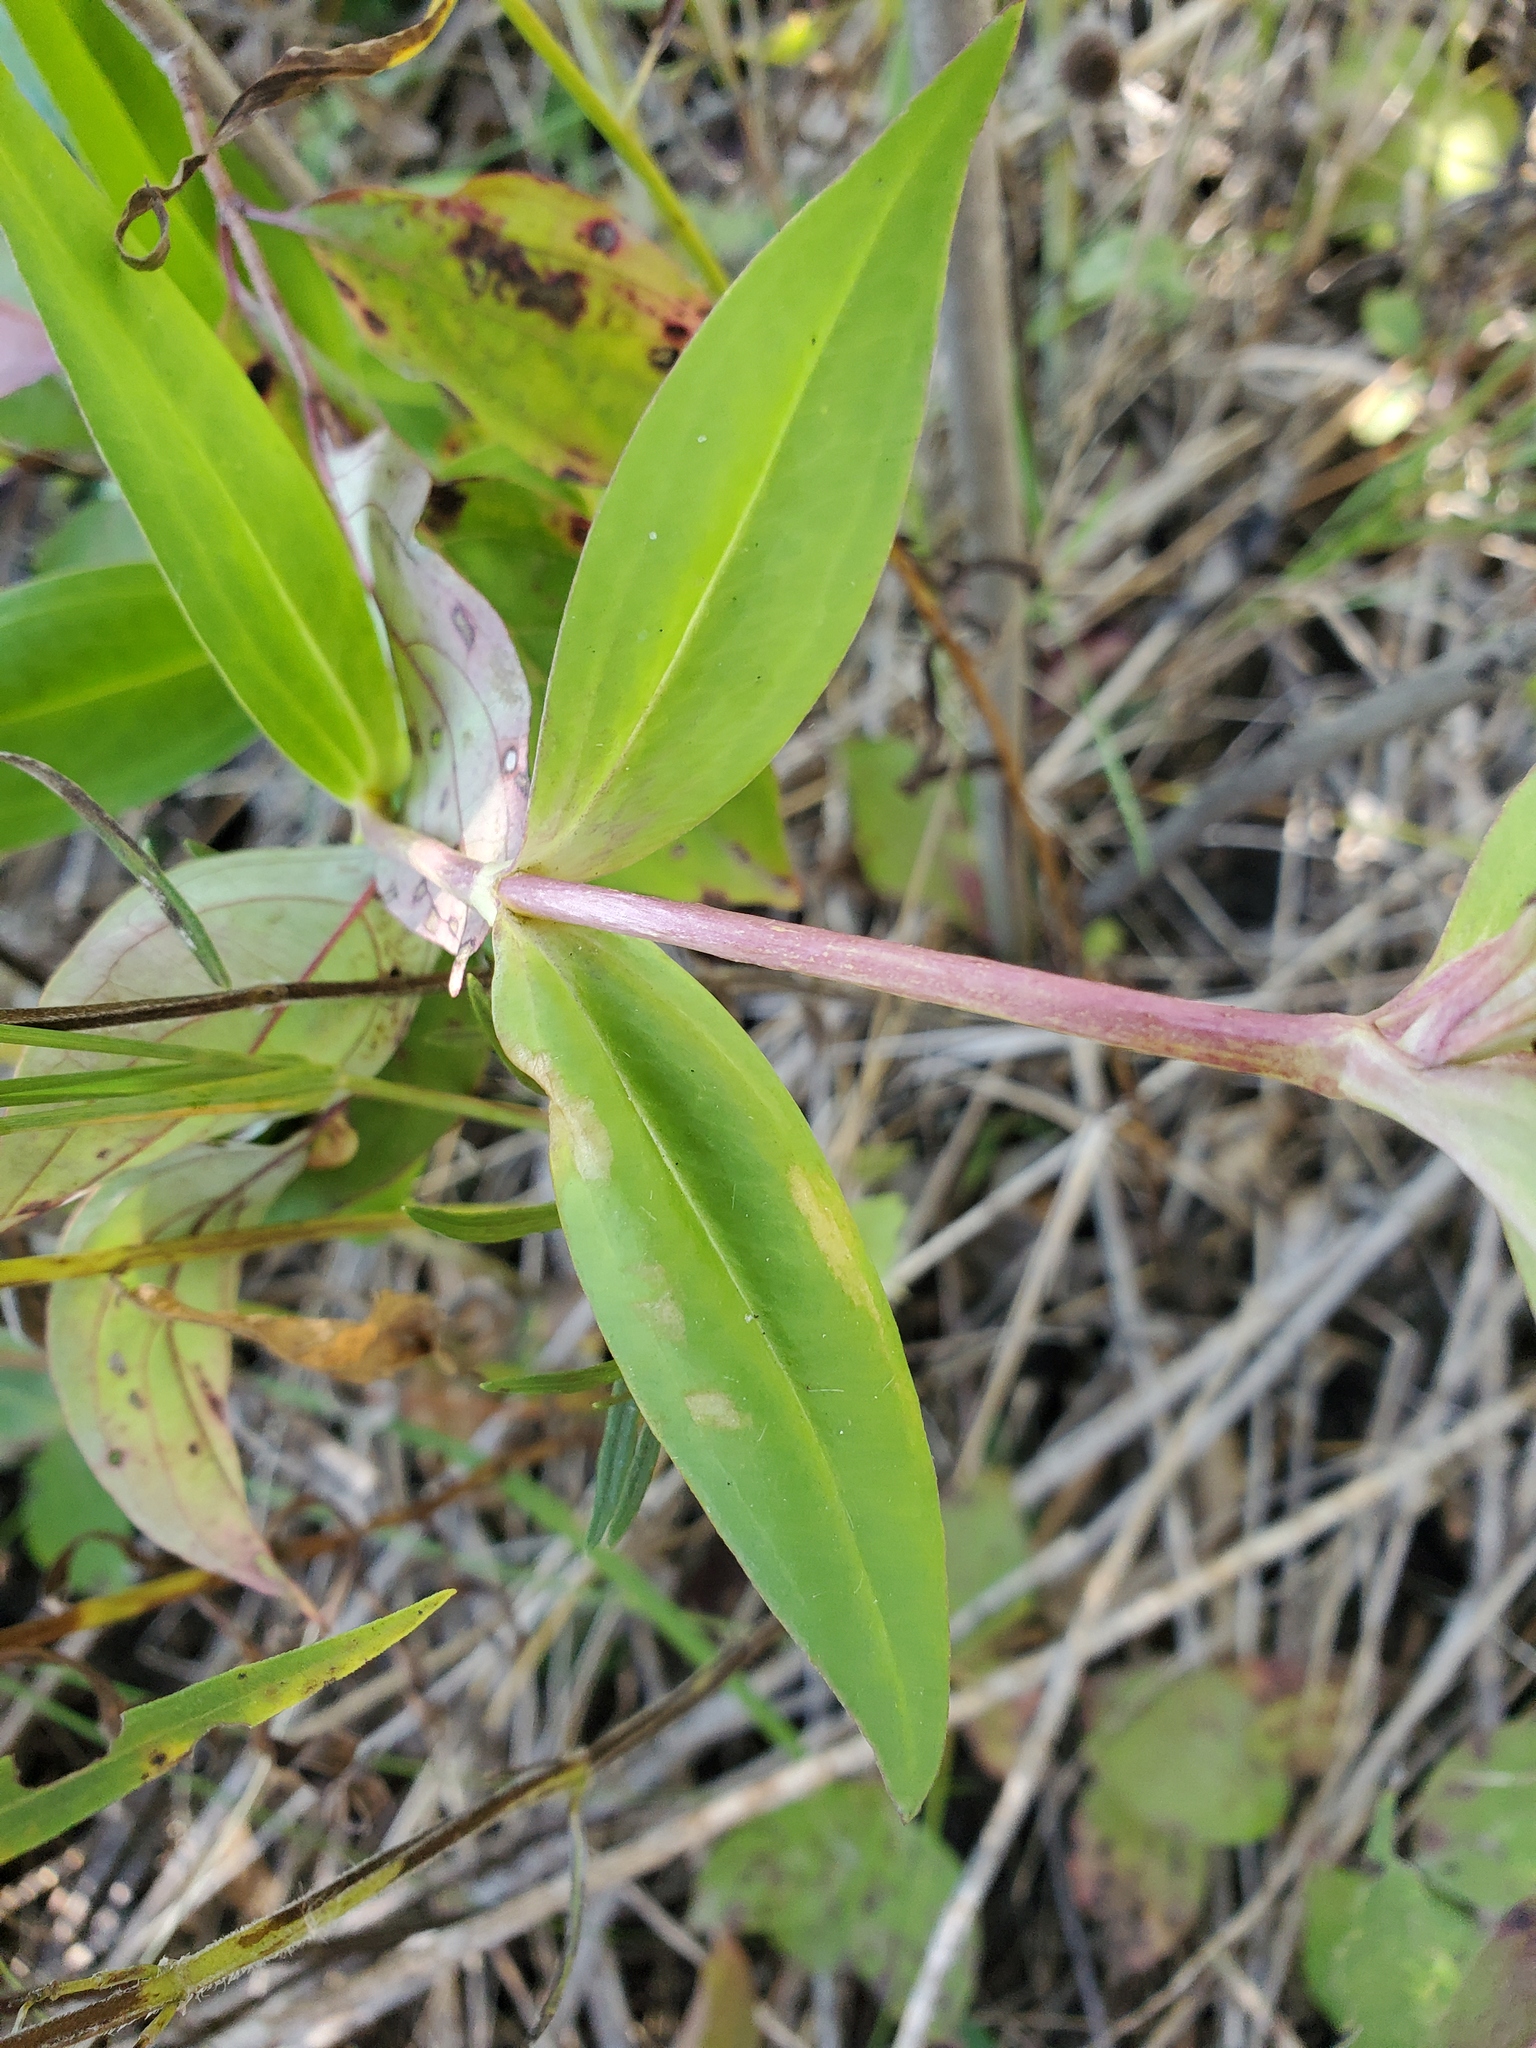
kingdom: Plantae
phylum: Tracheophyta
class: Magnoliopsida
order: Gentianales
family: Gentianaceae
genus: Gentiana
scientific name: Gentiana andrewsii
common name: Bottle gentian
